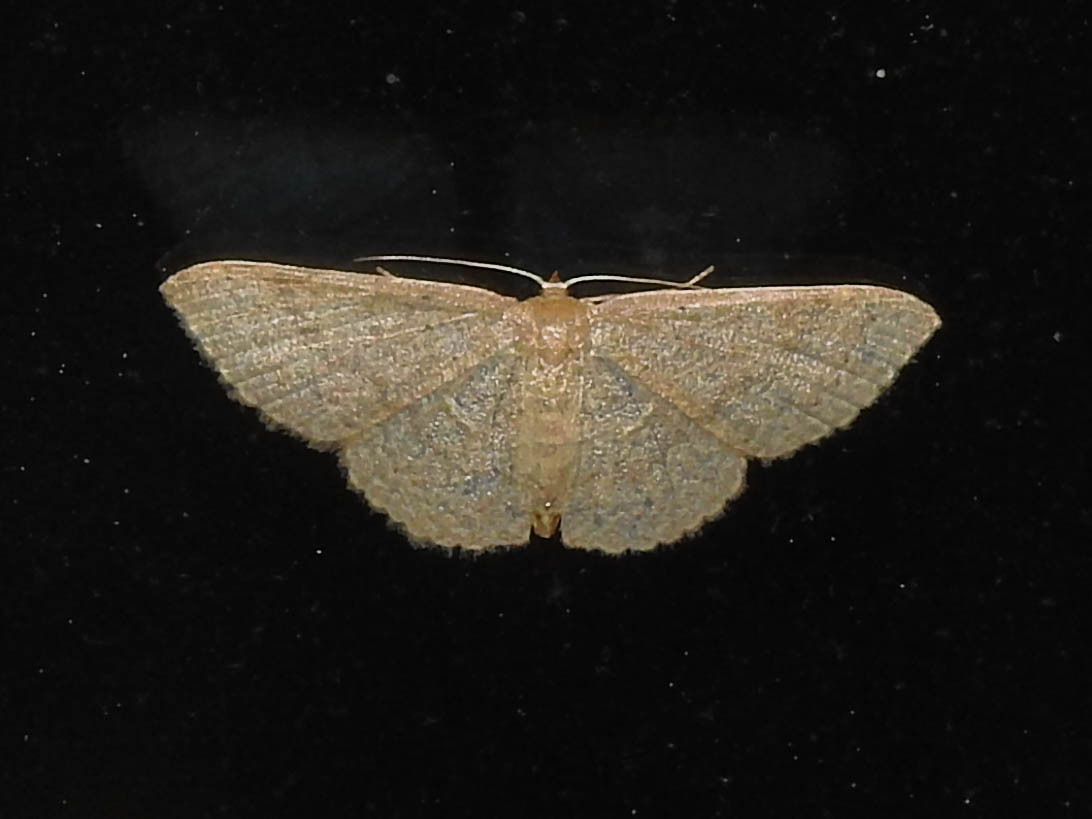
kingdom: Animalia
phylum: Arthropoda
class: Insecta
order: Lepidoptera
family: Geometridae
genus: Pleuroprucha
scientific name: Pleuroprucha insulsaria
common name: Common tan wave
